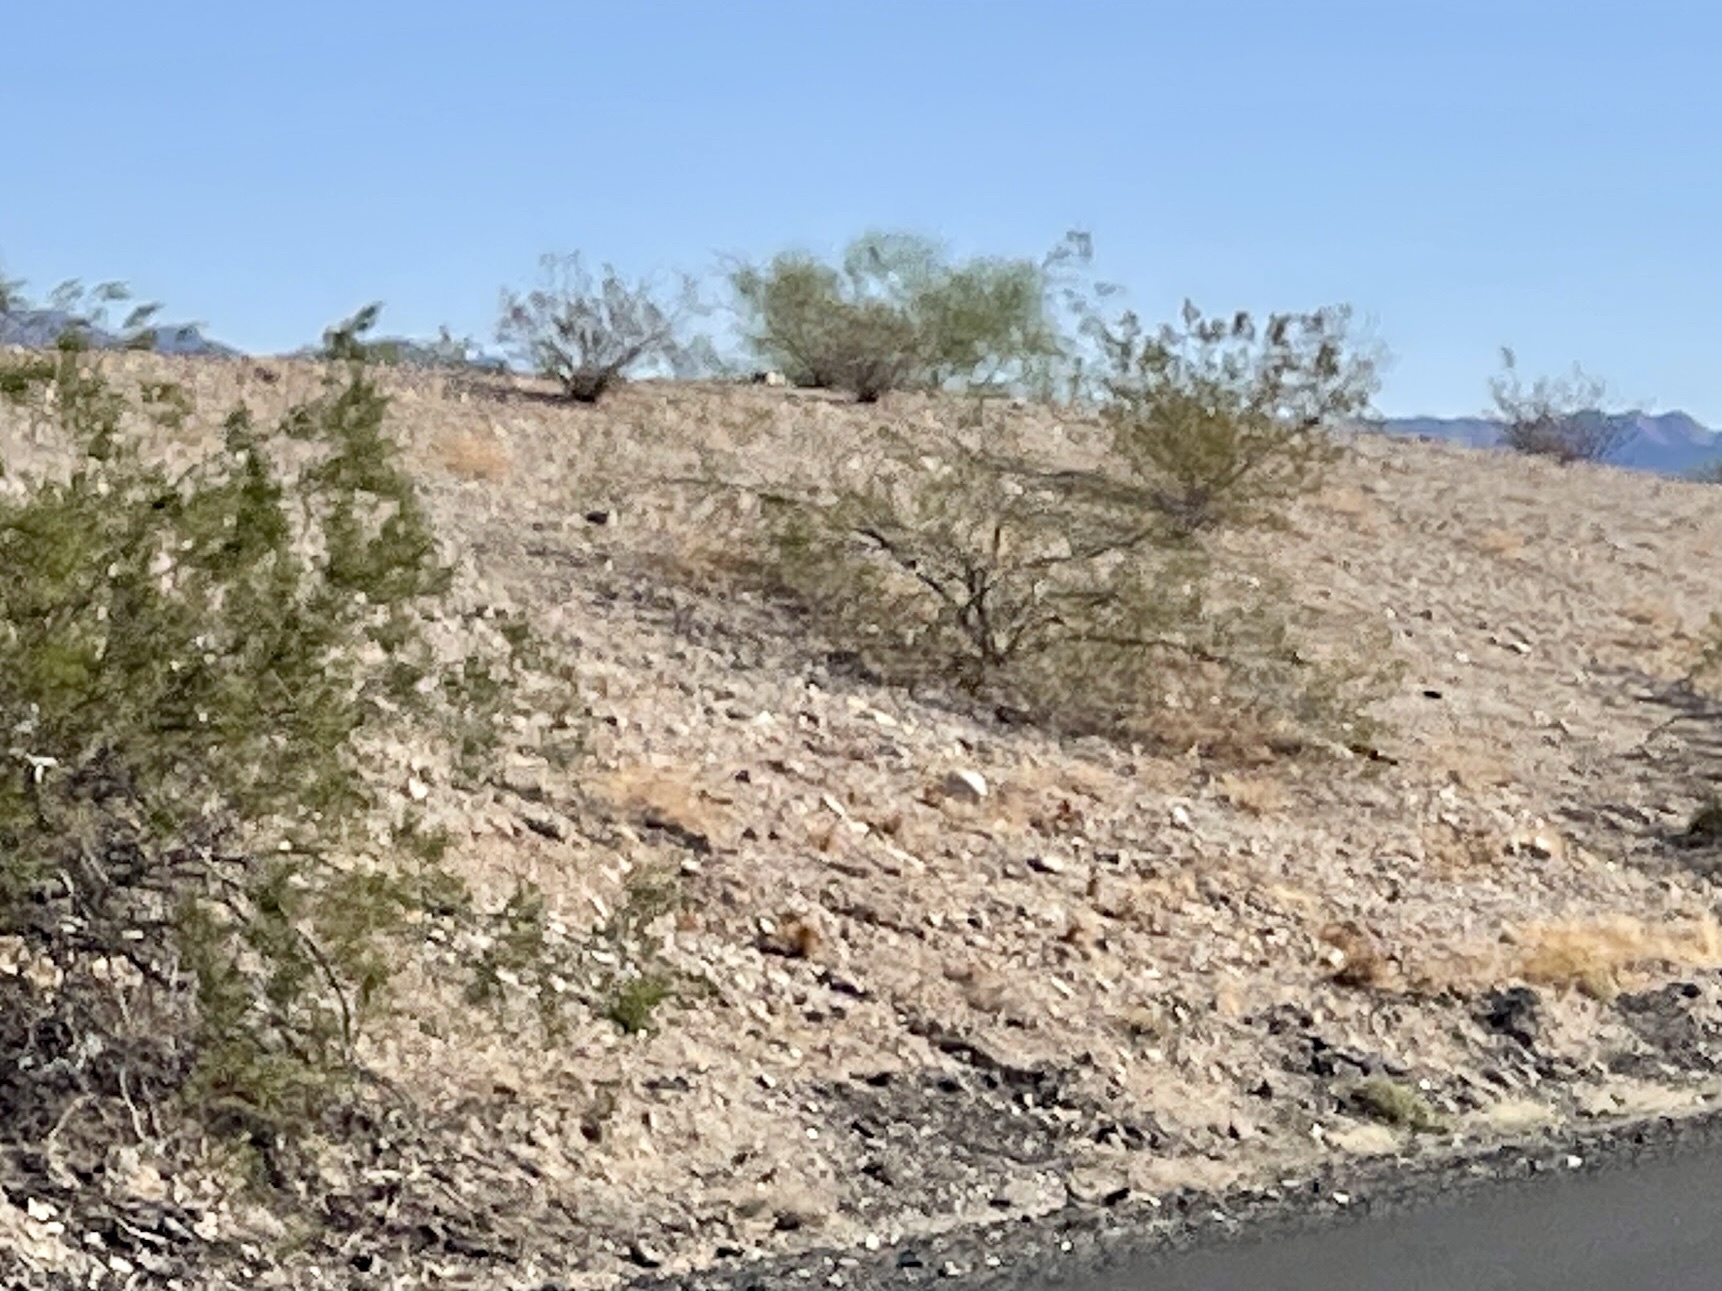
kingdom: Plantae
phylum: Tracheophyta
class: Magnoliopsida
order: Zygophyllales
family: Zygophyllaceae
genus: Larrea
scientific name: Larrea tridentata
